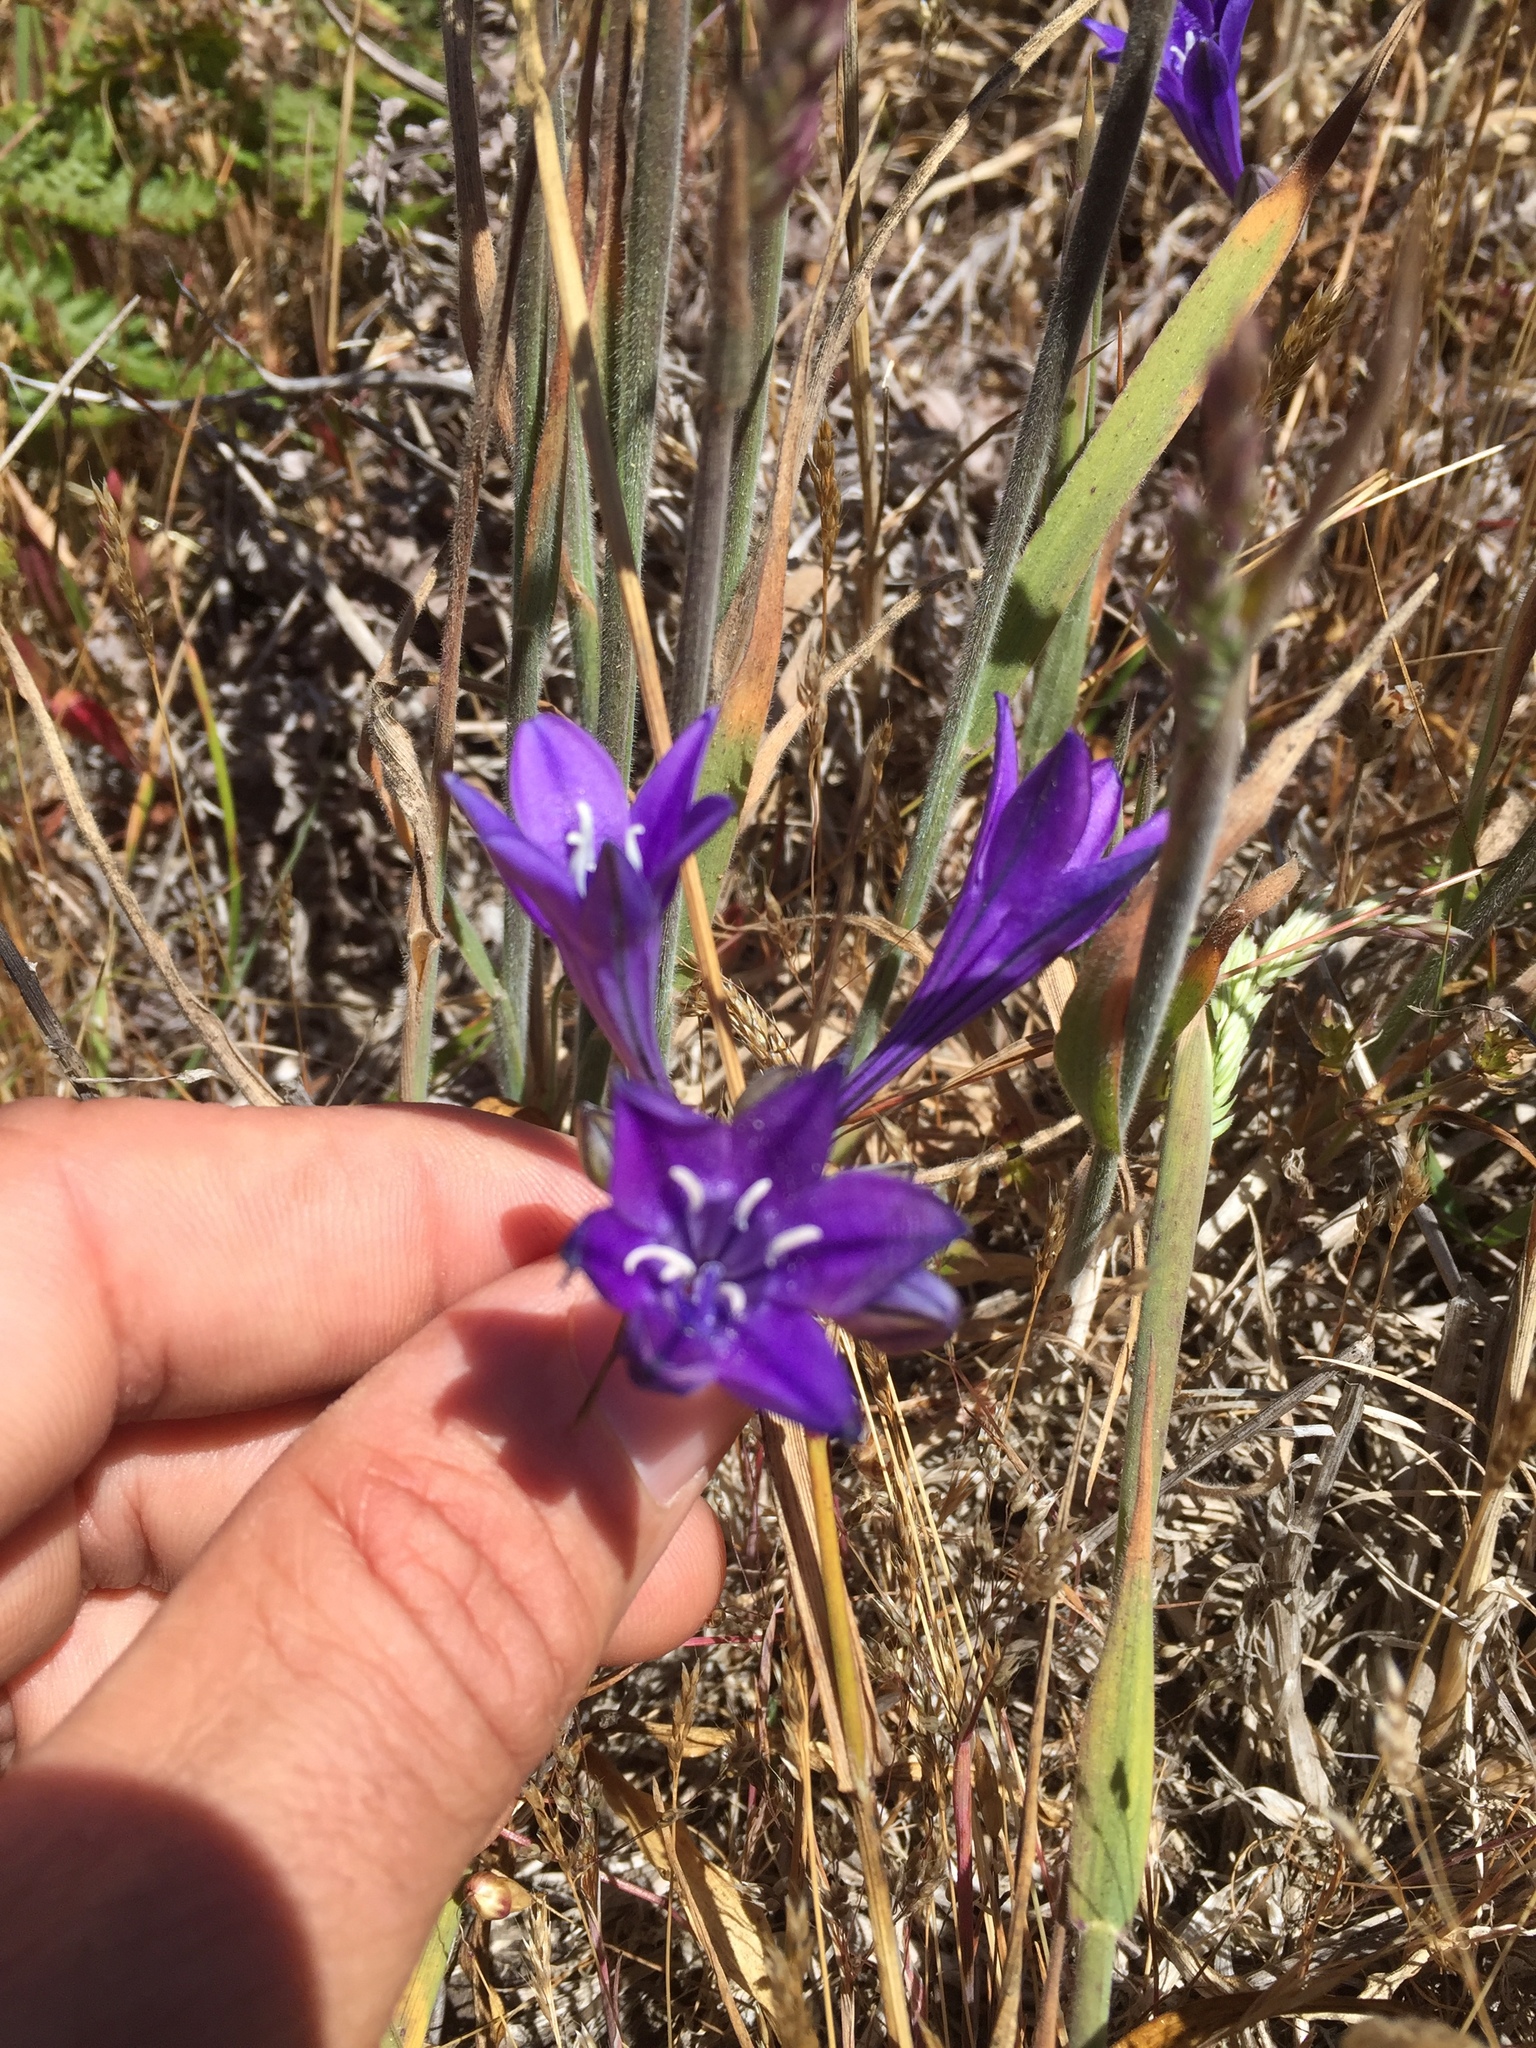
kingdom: Plantae
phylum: Tracheophyta
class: Liliopsida
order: Asparagales
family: Asparagaceae
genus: Triteleia
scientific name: Triteleia laxa
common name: Triplet-lily
